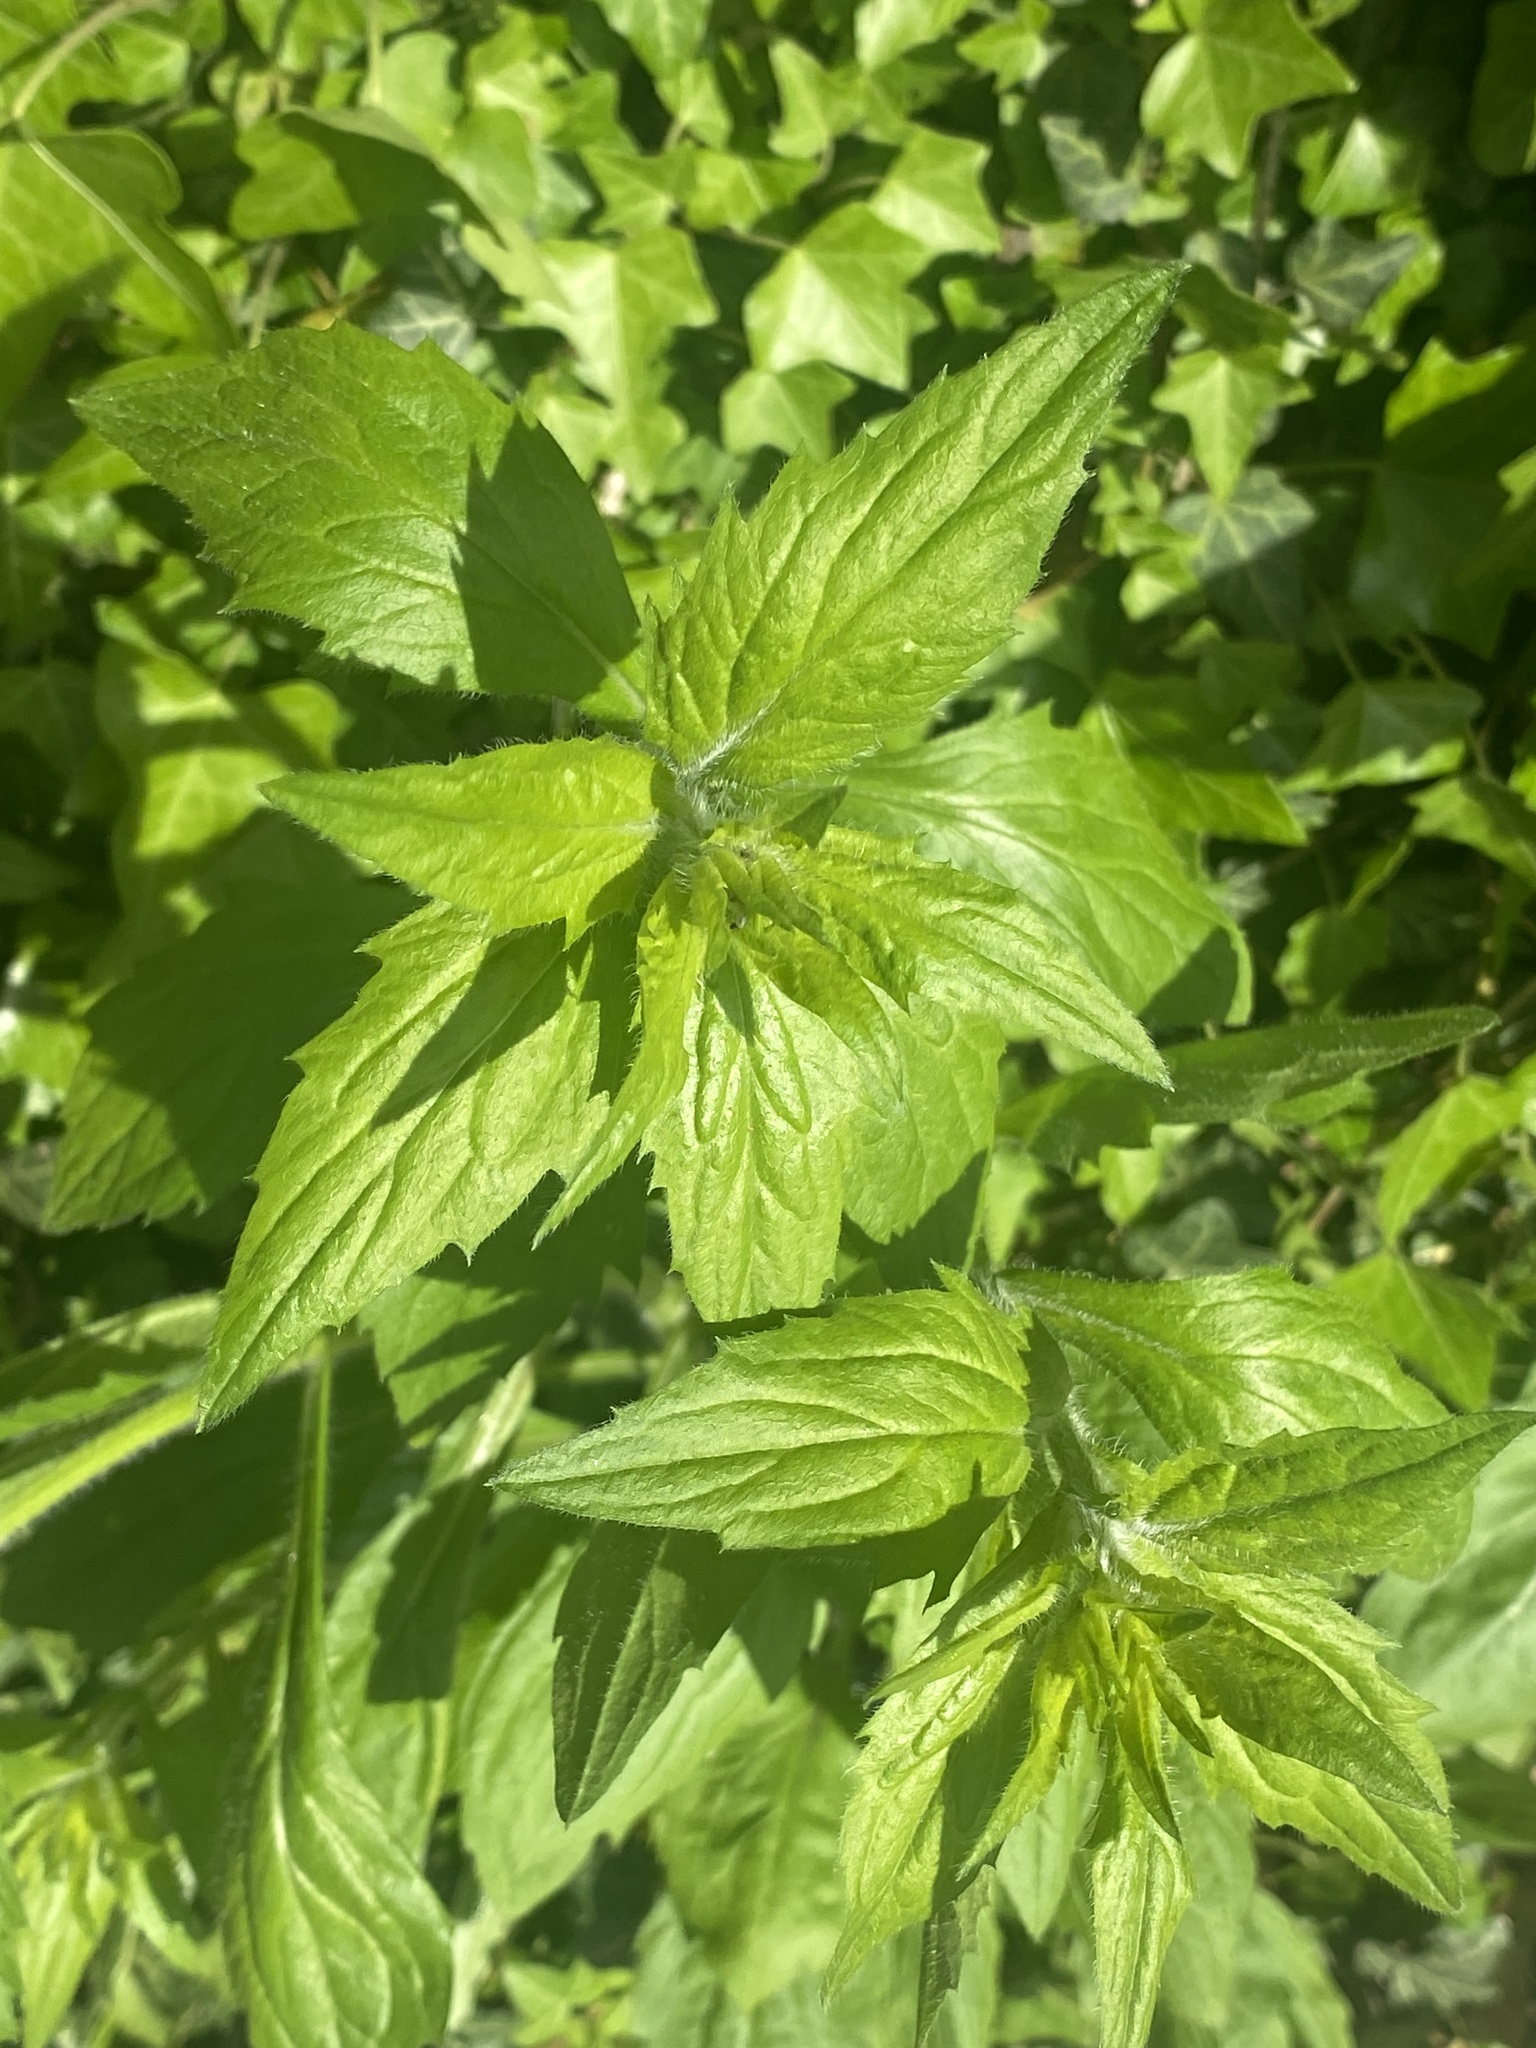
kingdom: Plantae
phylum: Tracheophyta
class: Magnoliopsida
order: Asterales
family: Asteraceae
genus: Erigeron
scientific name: Erigeron annuus
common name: Tall fleabane
